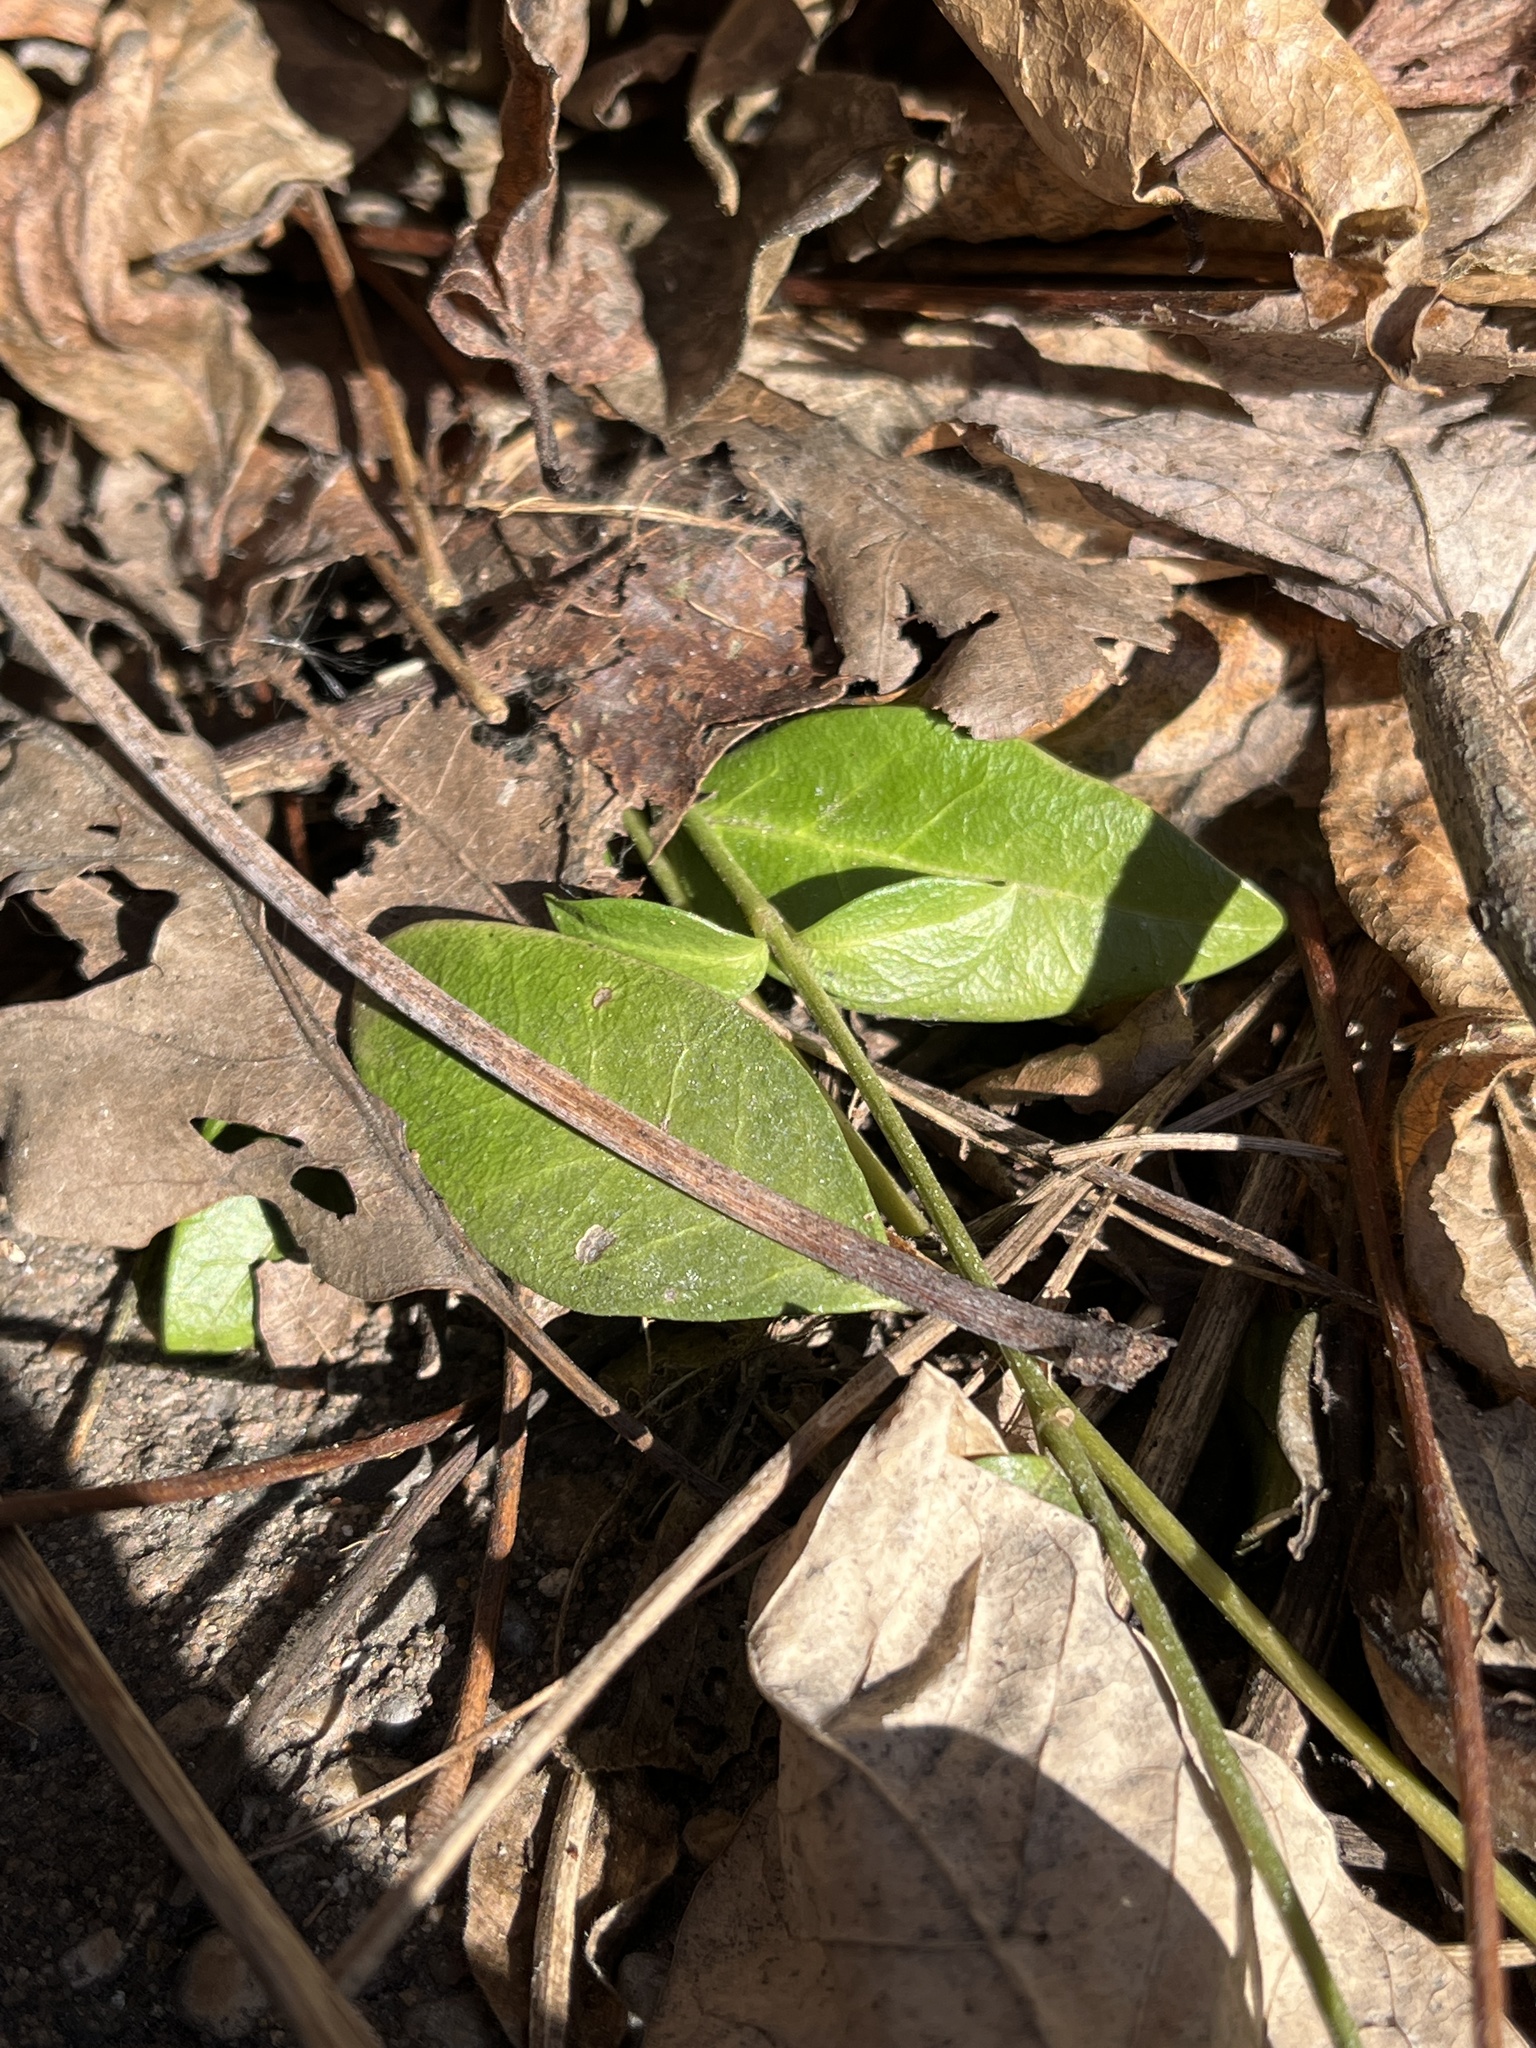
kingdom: Plantae
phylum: Tracheophyta
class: Magnoliopsida
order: Gentianales
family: Apocynaceae
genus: Vinca
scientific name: Vinca minor
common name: Lesser periwinkle
